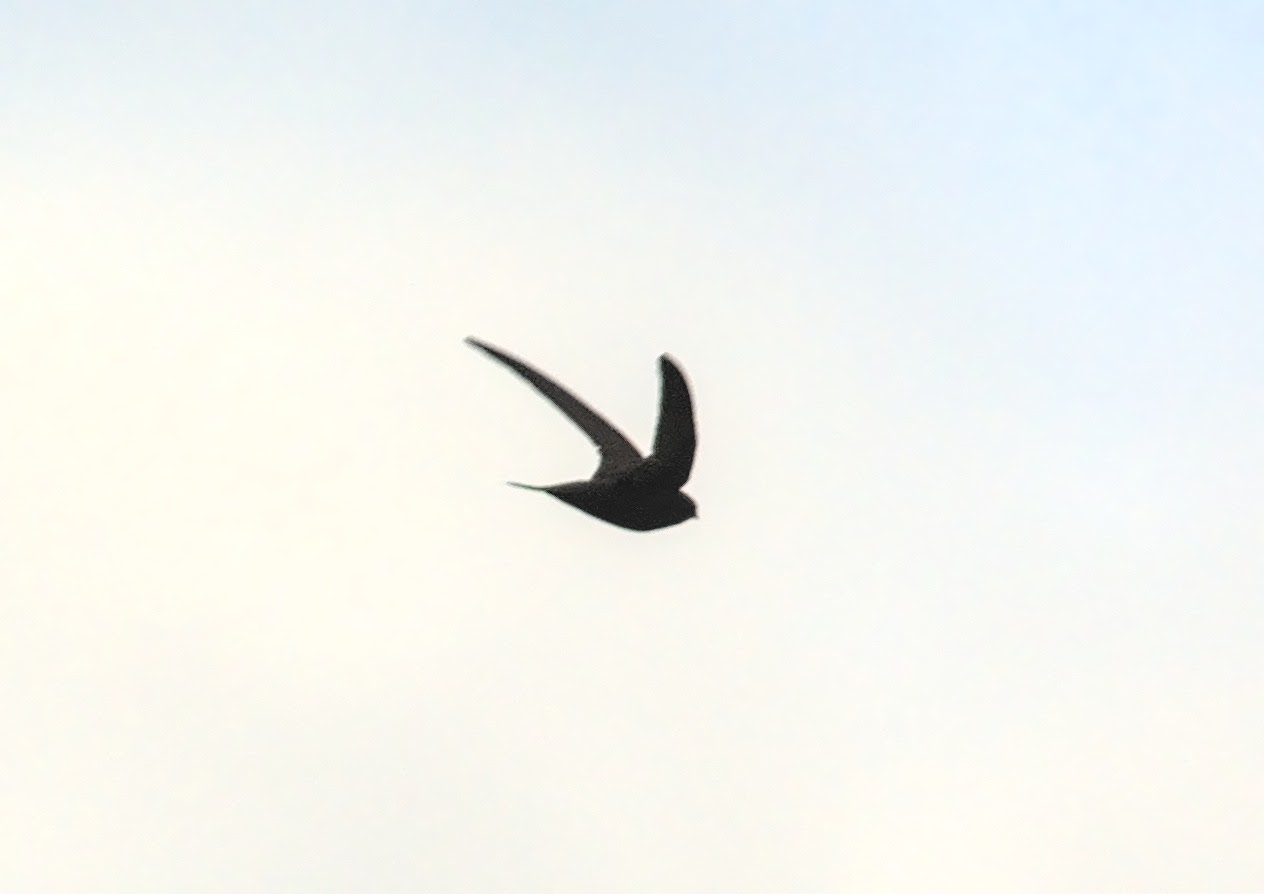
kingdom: Animalia
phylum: Chordata
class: Aves
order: Apodiformes
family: Apodidae
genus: Apus
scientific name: Apus apus
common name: Common swift
